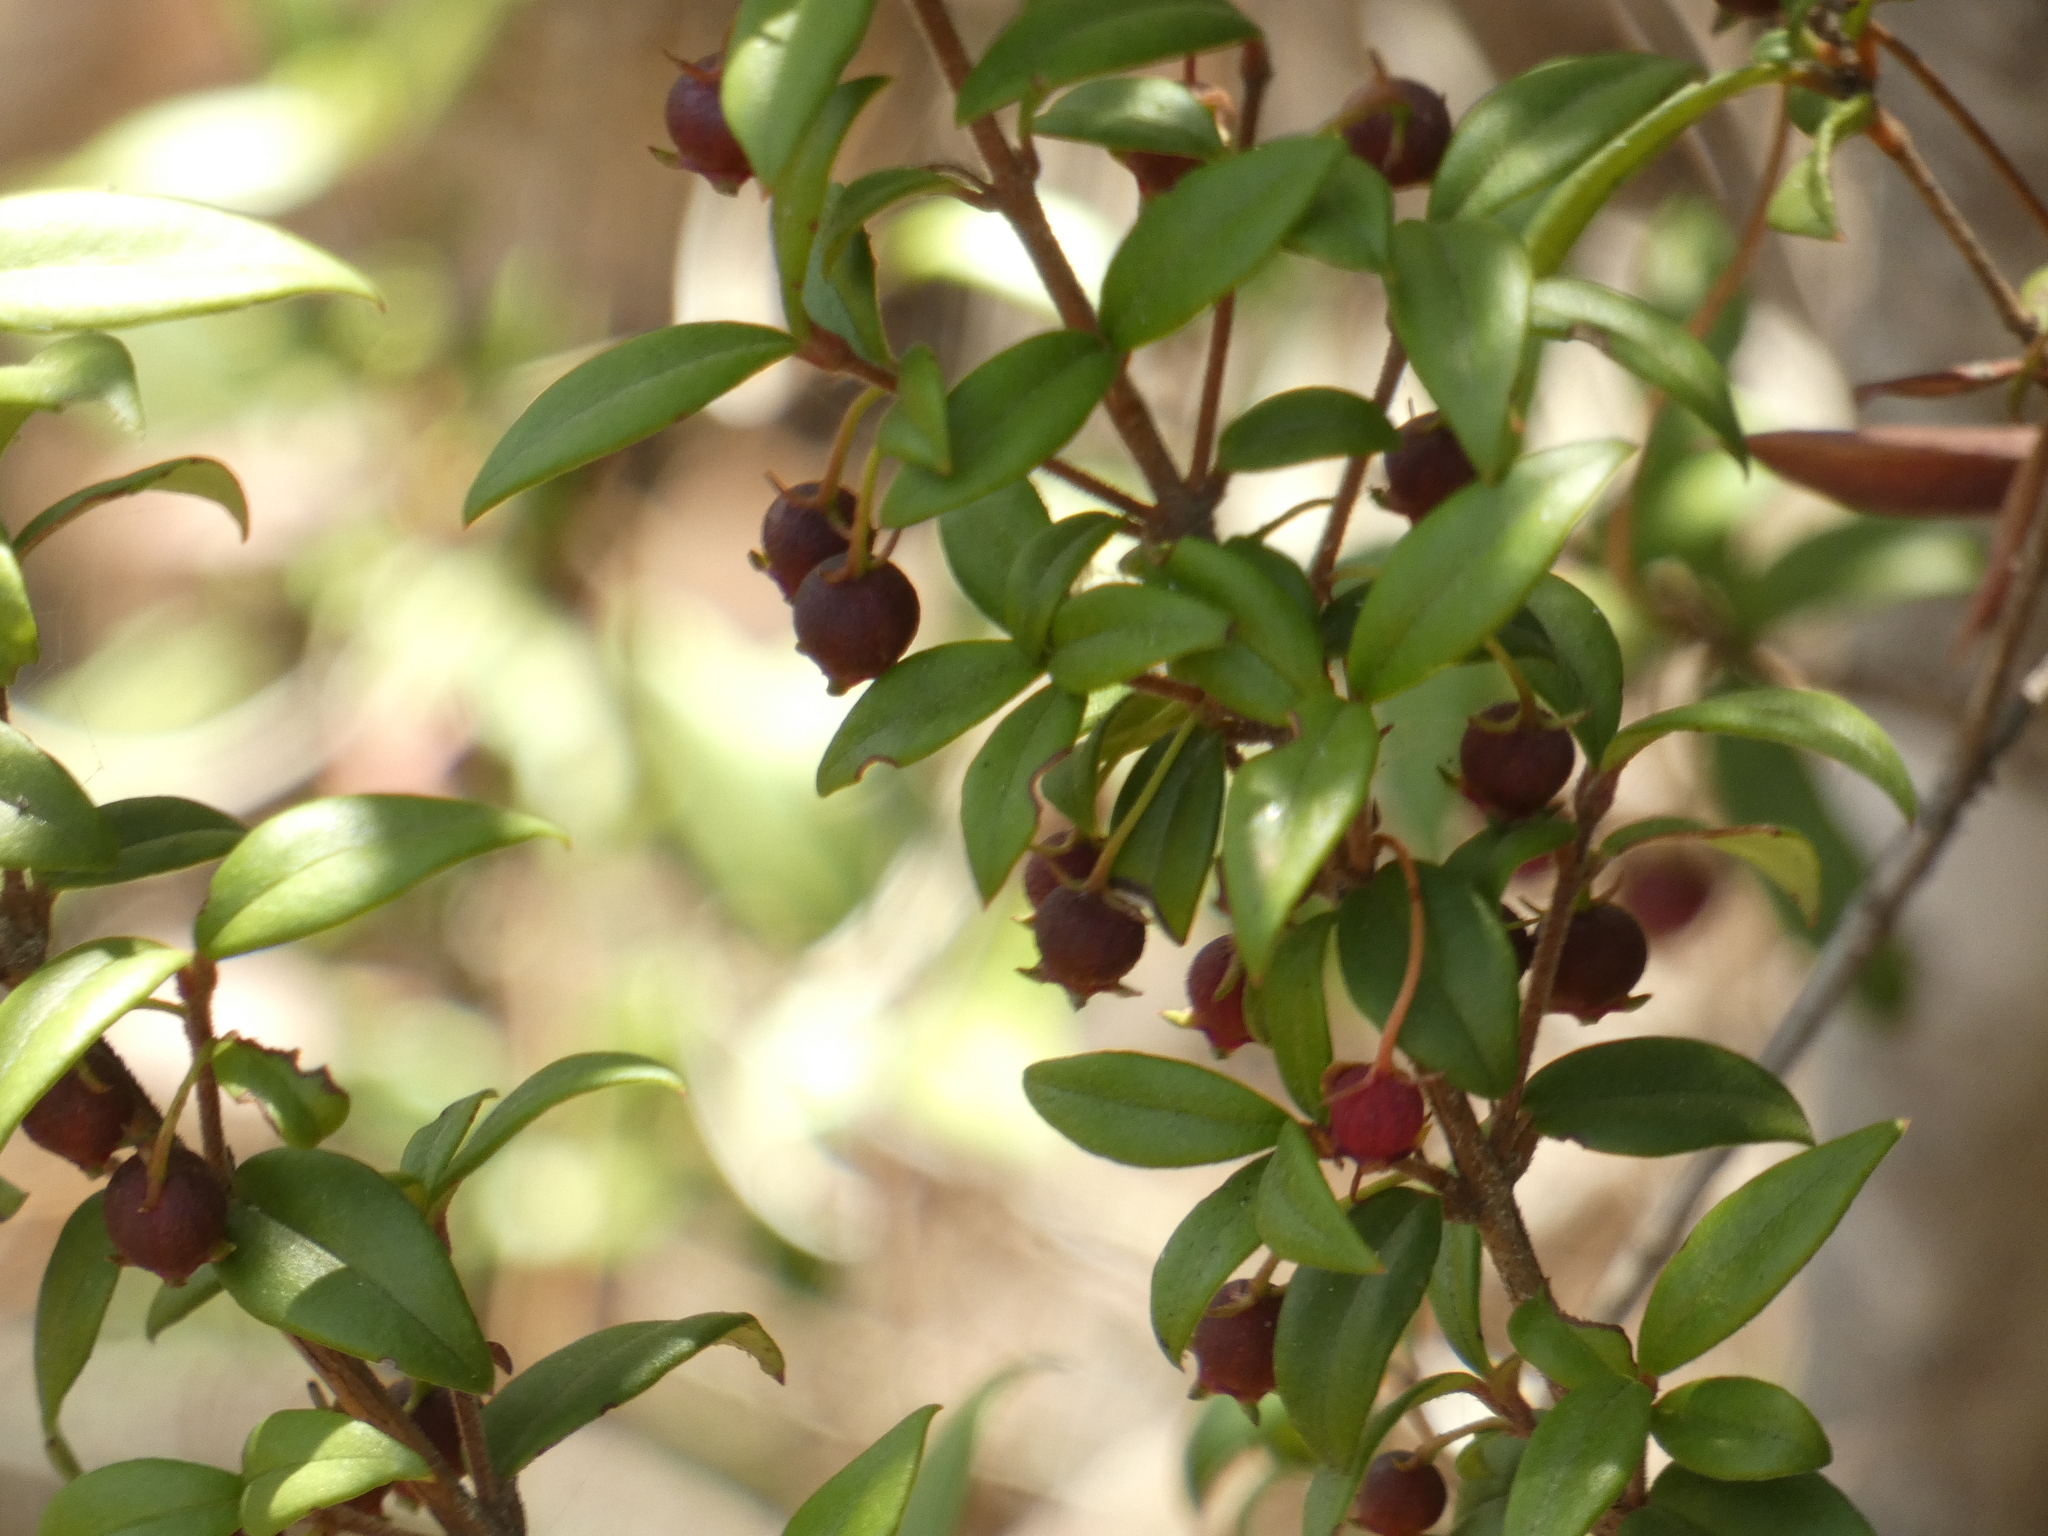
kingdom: Plantae
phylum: Tracheophyta
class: Magnoliopsida
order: Myrtales
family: Myrtaceae
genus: Ugni
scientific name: Ugni molinae
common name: Chilean-guava
